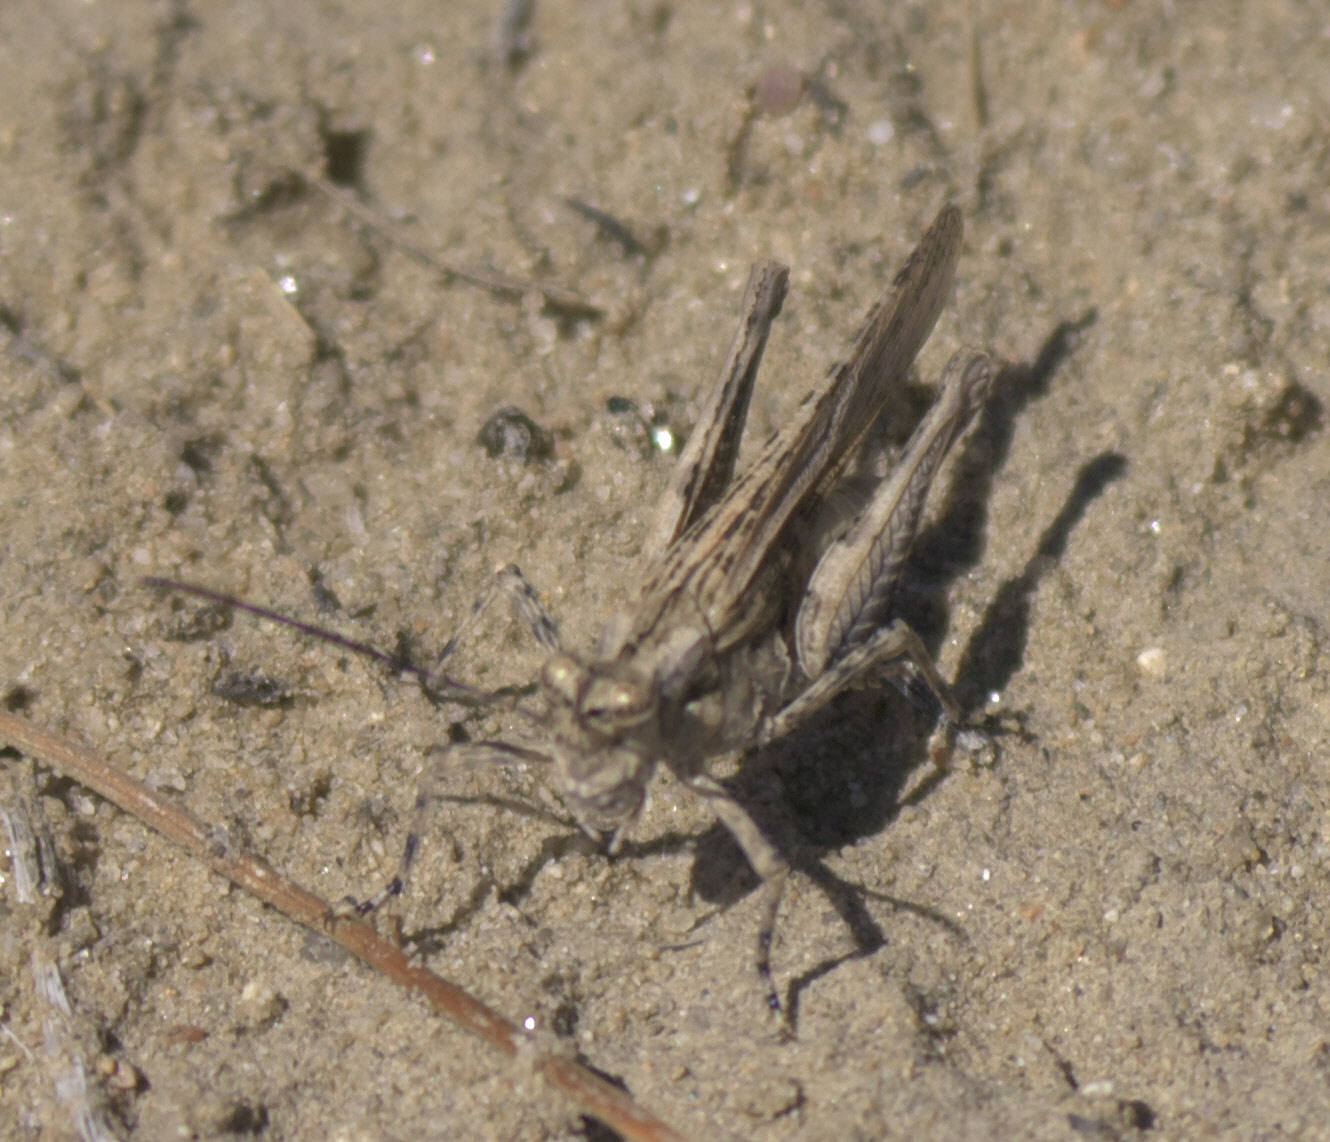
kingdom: Animalia
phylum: Arthropoda
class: Insecta
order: Orthoptera
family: Acrididae
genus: Derotmema
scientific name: Derotmema haydenii
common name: Hayden's grasshopper
